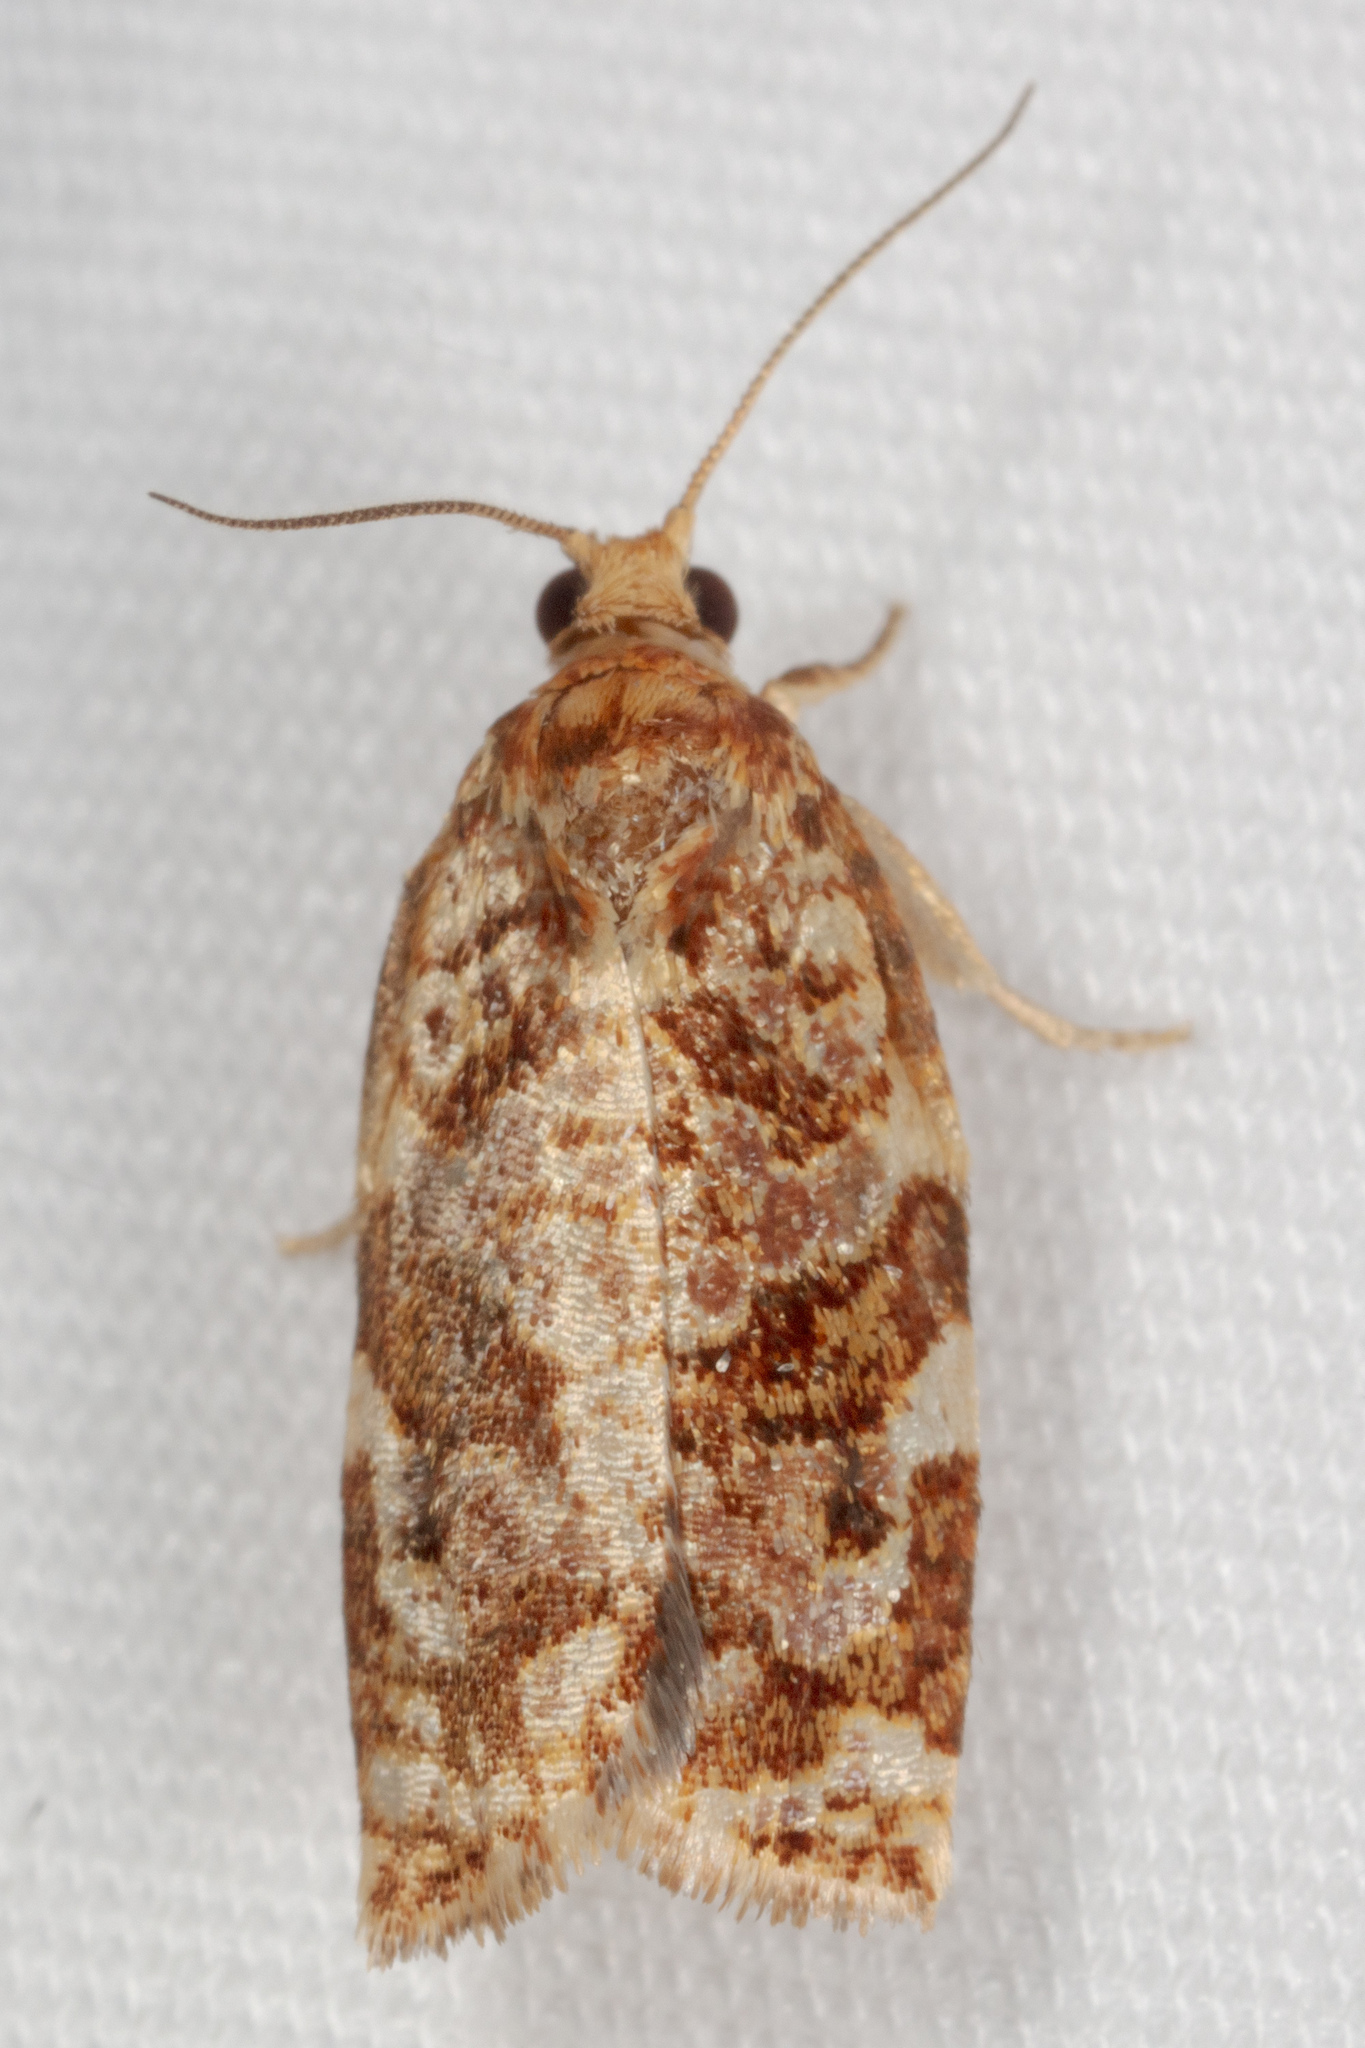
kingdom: Animalia
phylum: Arthropoda
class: Insecta
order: Lepidoptera
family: Tortricidae
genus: Archips
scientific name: Archips argyrospila
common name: Fruit-tree leafroller moth
